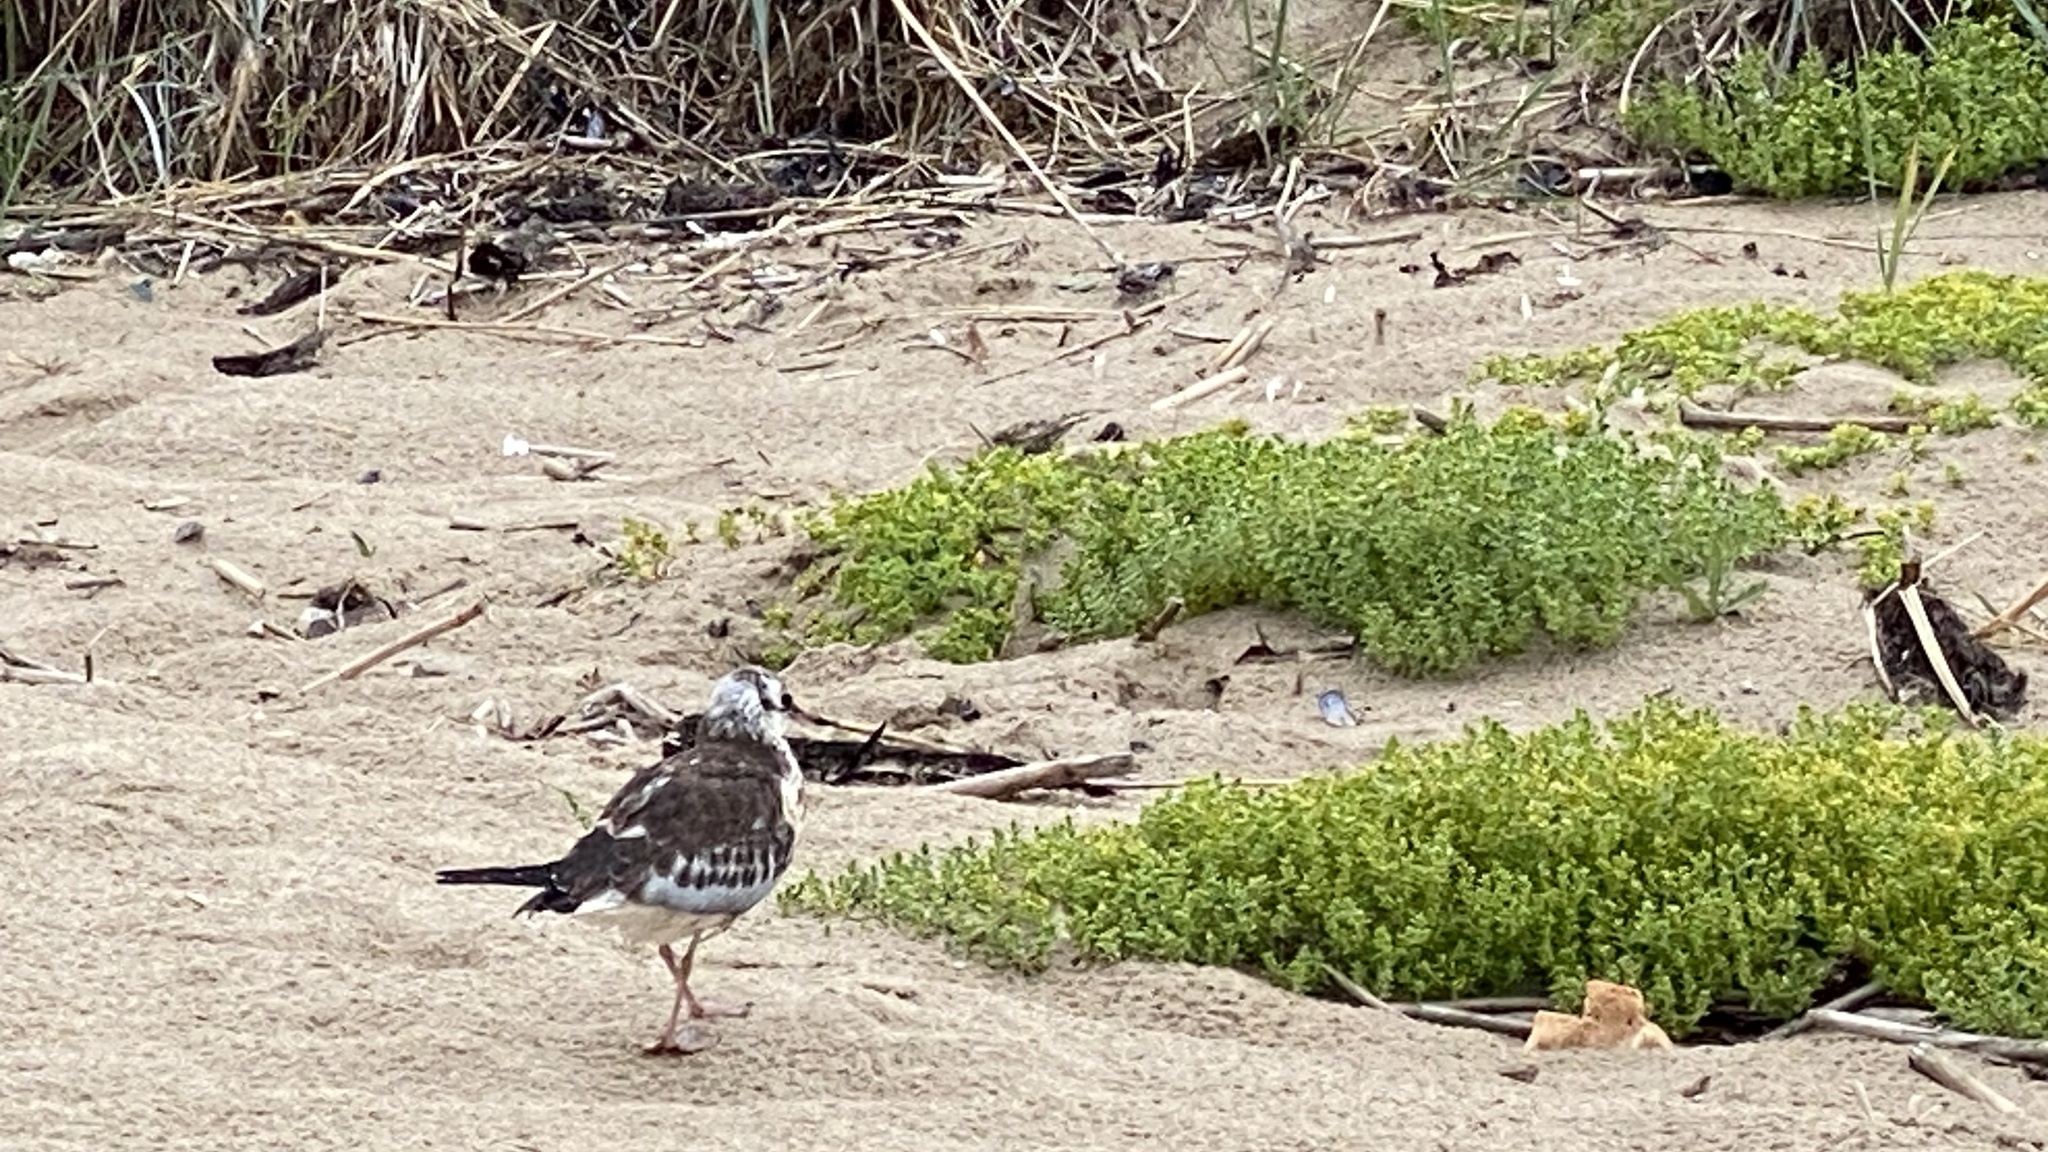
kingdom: Animalia
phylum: Chordata
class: Aves
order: Charadriiformes
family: Laridae
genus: Chroicocephalus
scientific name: Chroicocephalus ridibundus
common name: Black-headed gull
